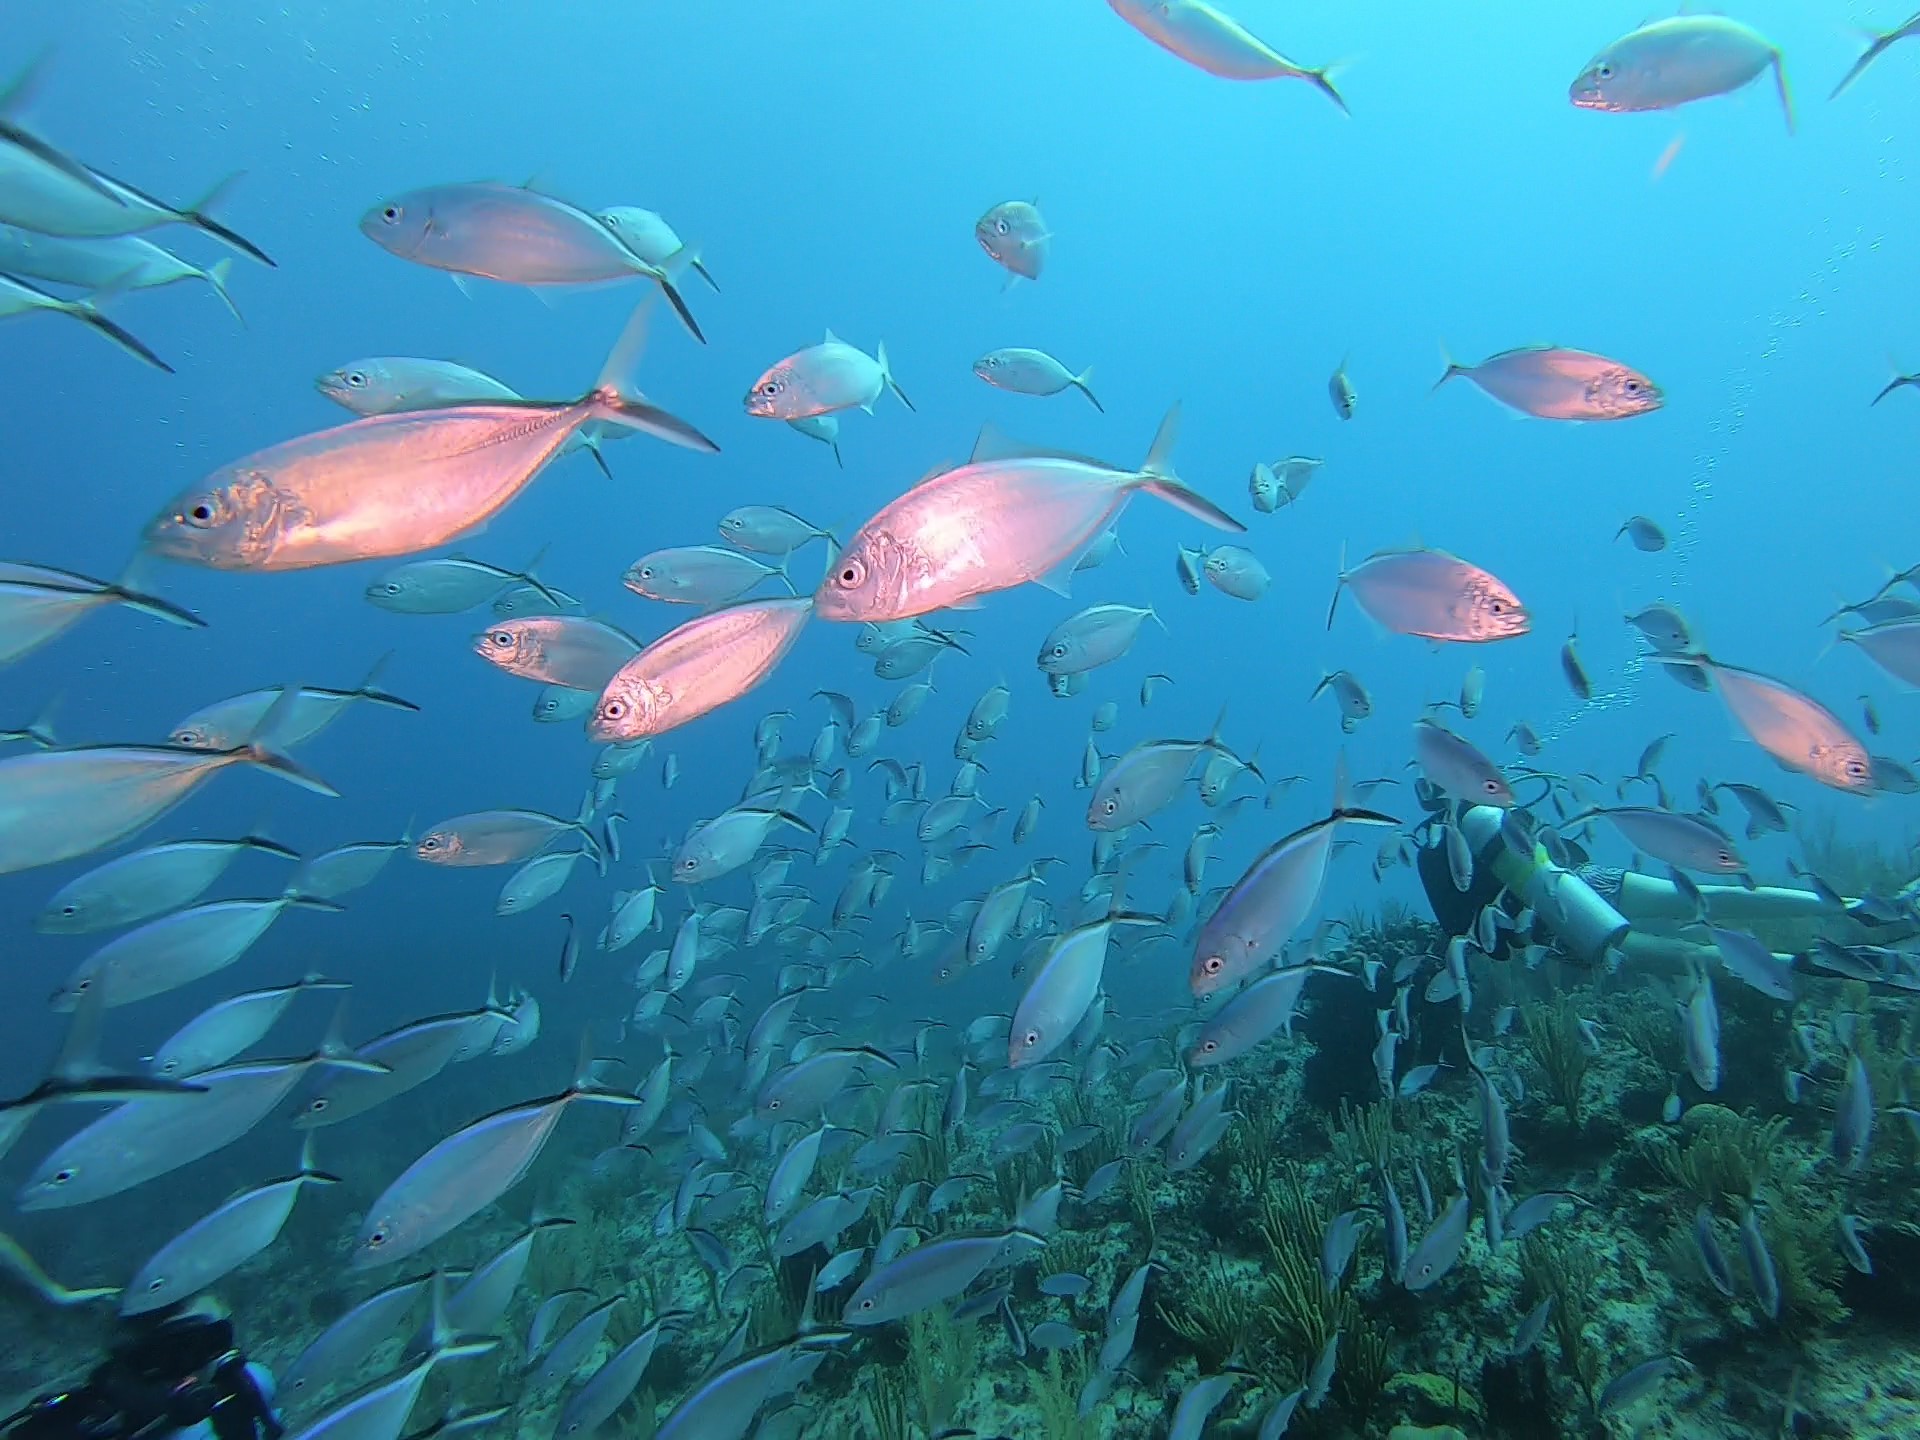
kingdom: Animalia
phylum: Chordata
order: Perciformes
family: Carangidae
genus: Caranx
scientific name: Caranx ruber
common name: Bar jack
